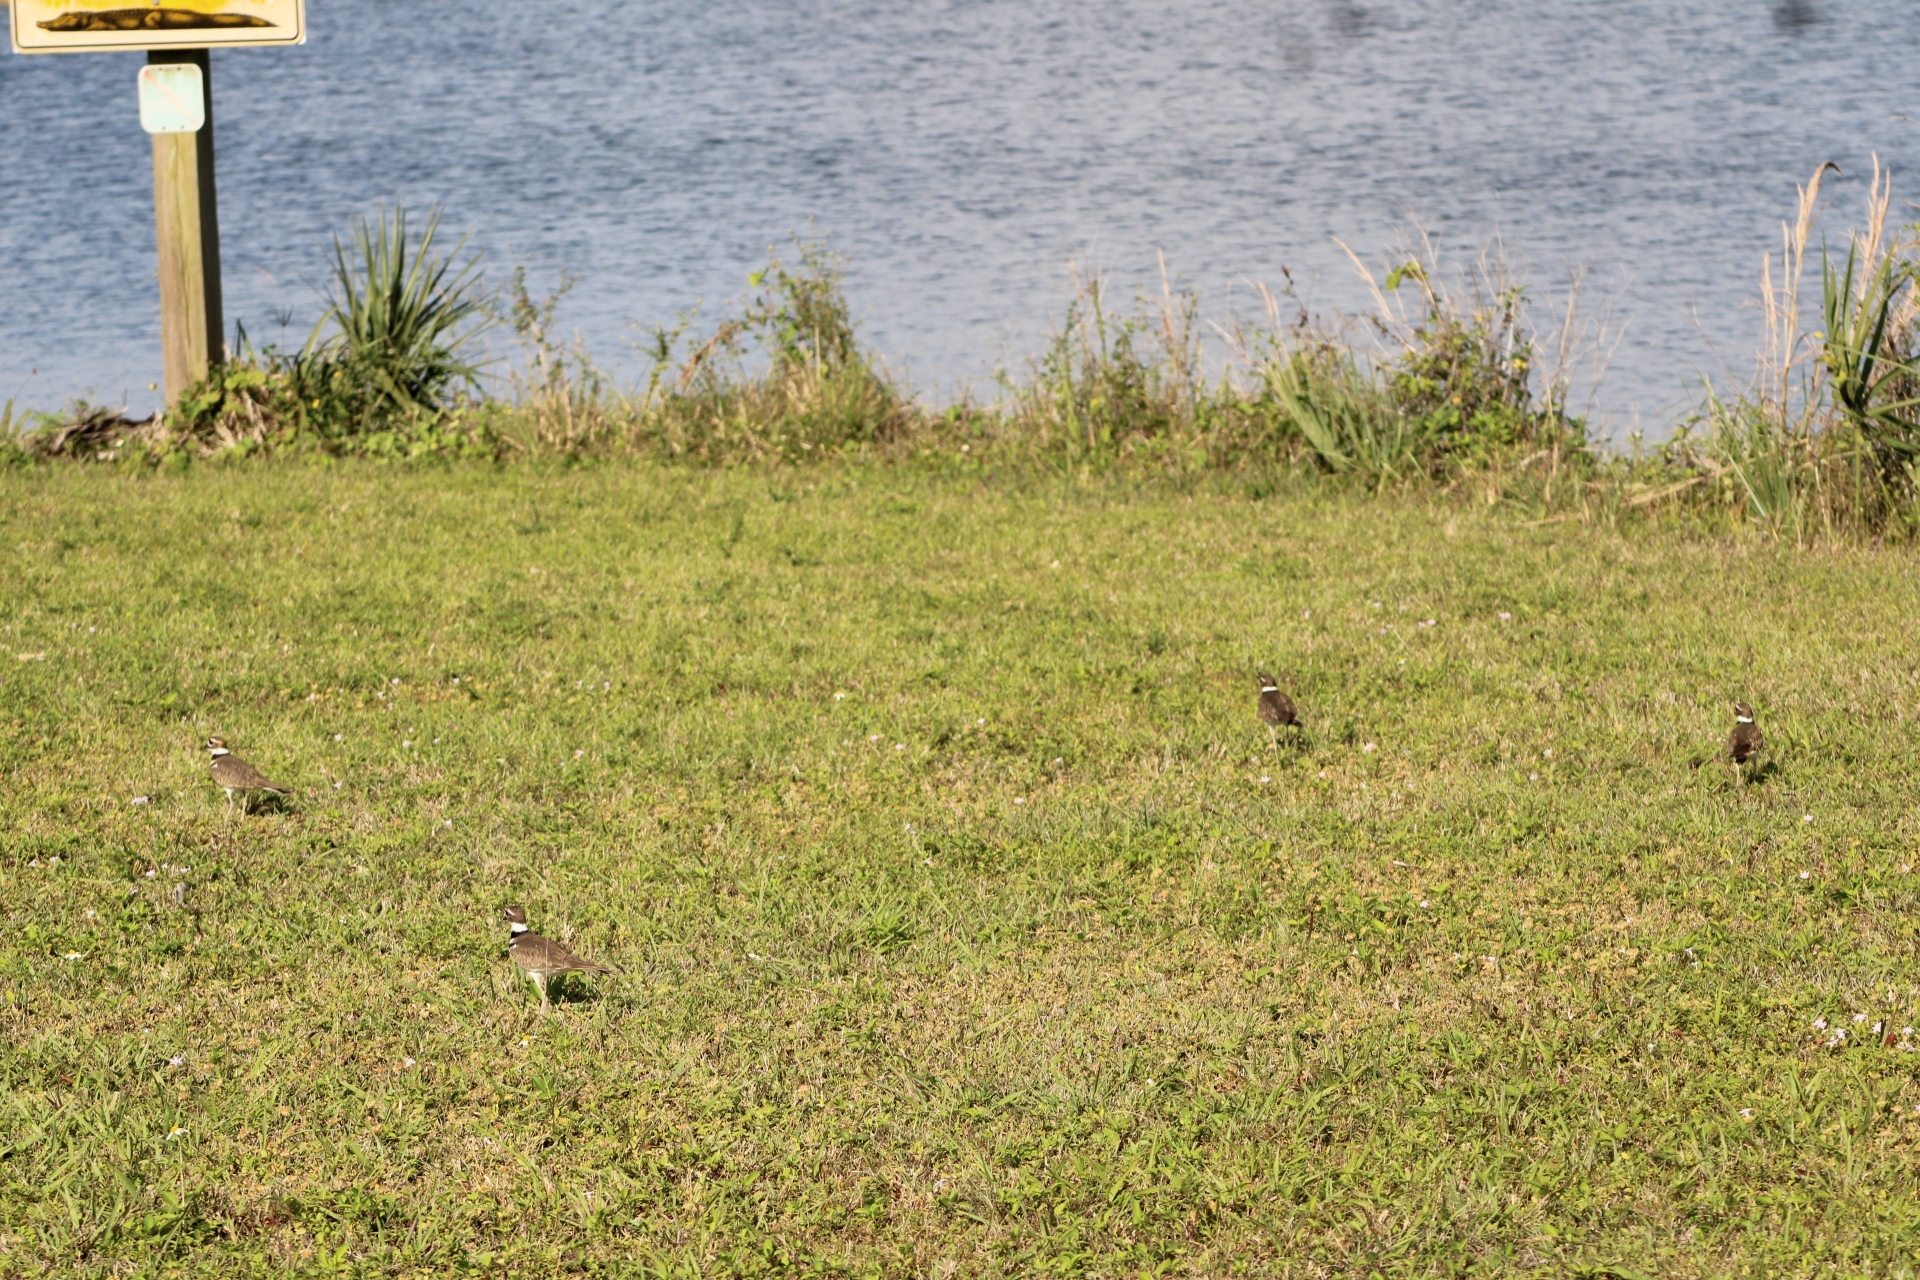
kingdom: Animalia
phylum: Chordata
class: Aves
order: Charadriiformes
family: Charadriidae
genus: Charadrius
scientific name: Charadrius vociferus
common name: Killdeer
